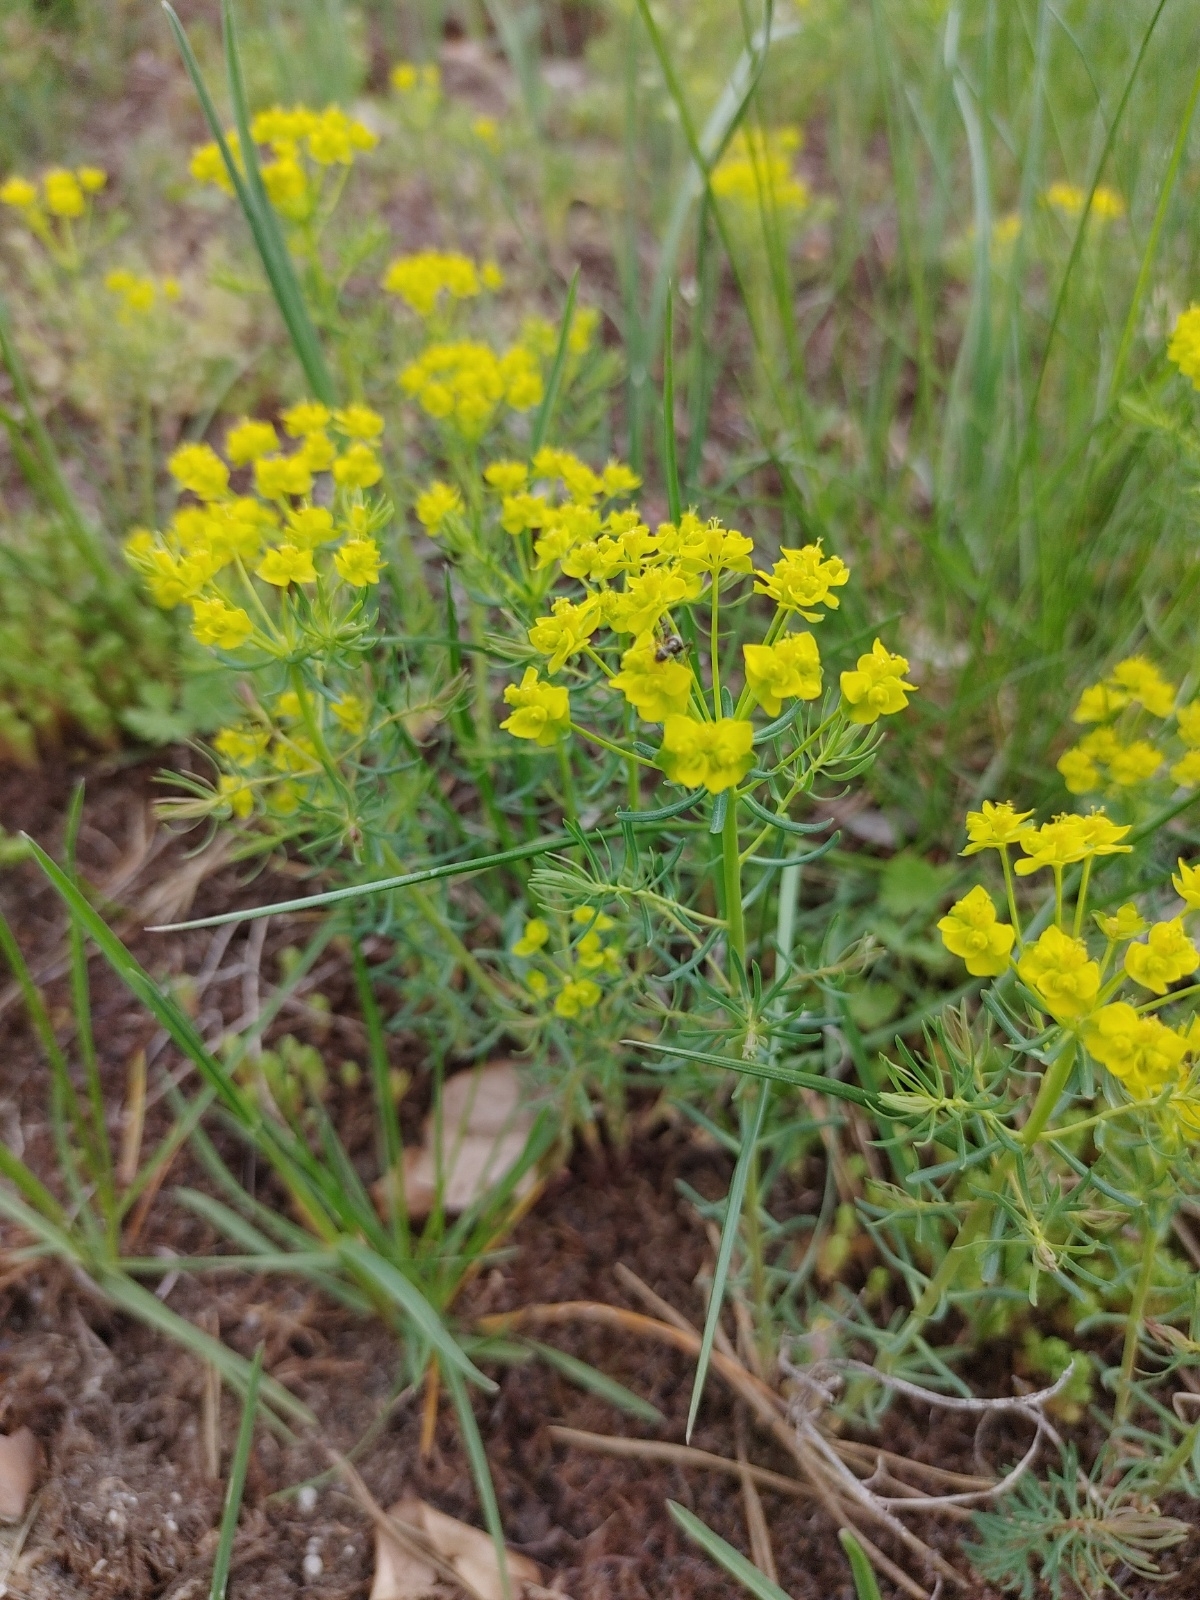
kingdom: Plantae
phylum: Tracheophyta
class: Magnoliopsida
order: Malpighiales
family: Euphorbiaceae
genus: Euphorbia
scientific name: Euphorbia cyparissias
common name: Cypress spurge
